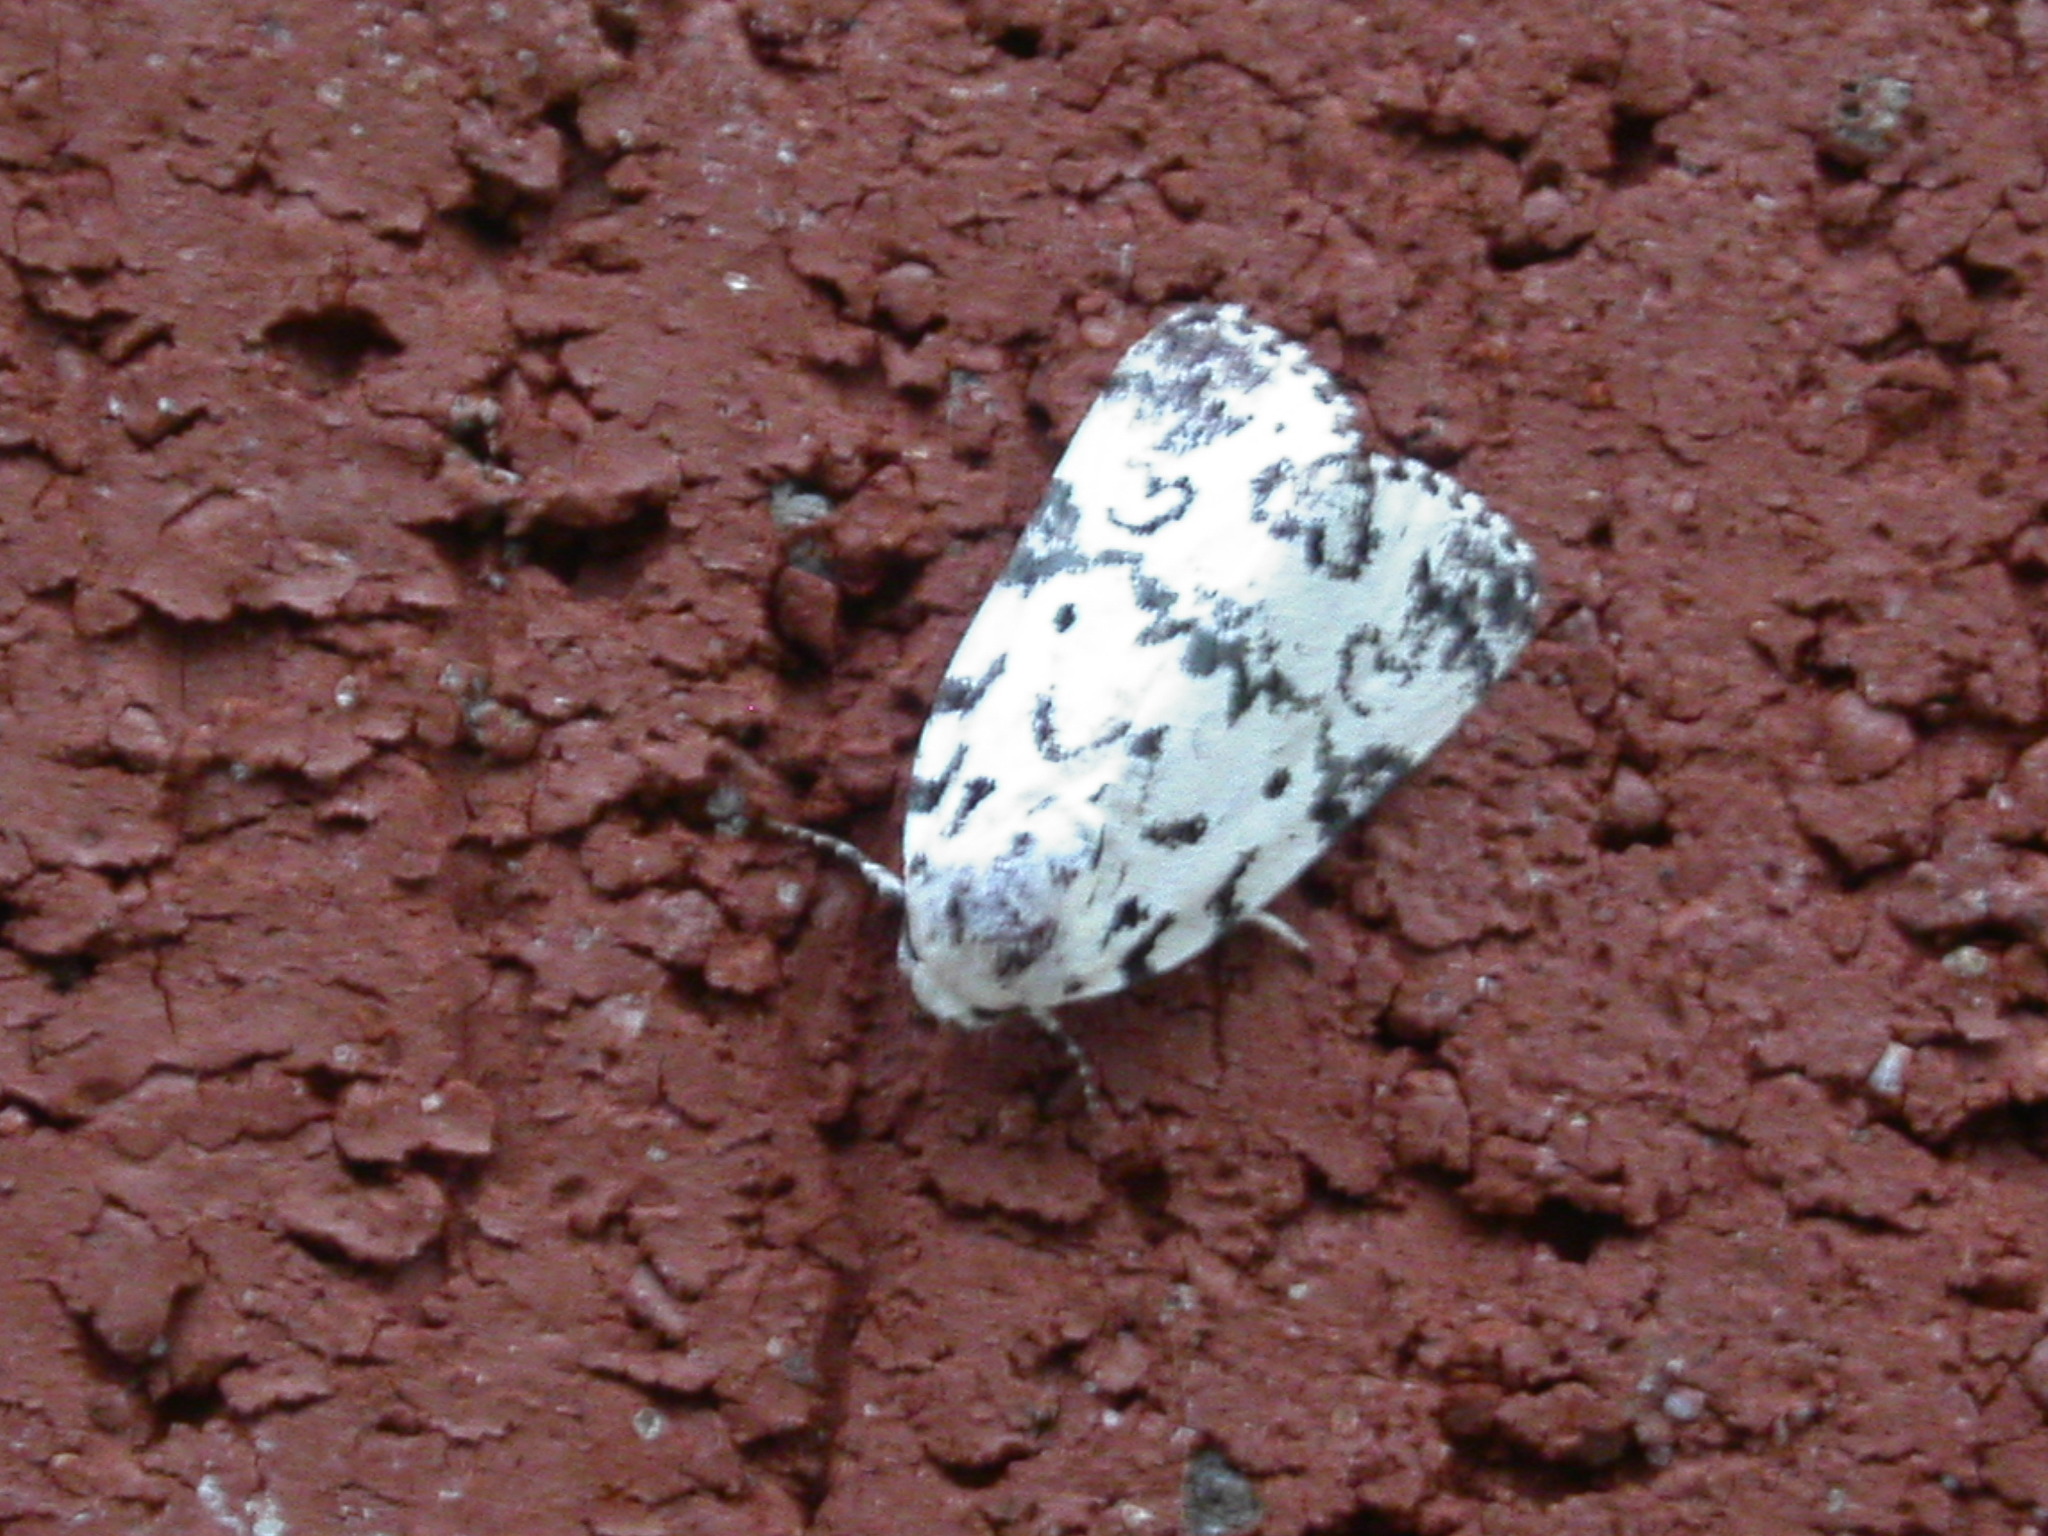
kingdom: Animalia
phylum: Arthropoda
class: Insecta
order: Lepidoptera
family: Noctuidae
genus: Polygrammate
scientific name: Polygrammate hebraeicum
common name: Hebrew moth
